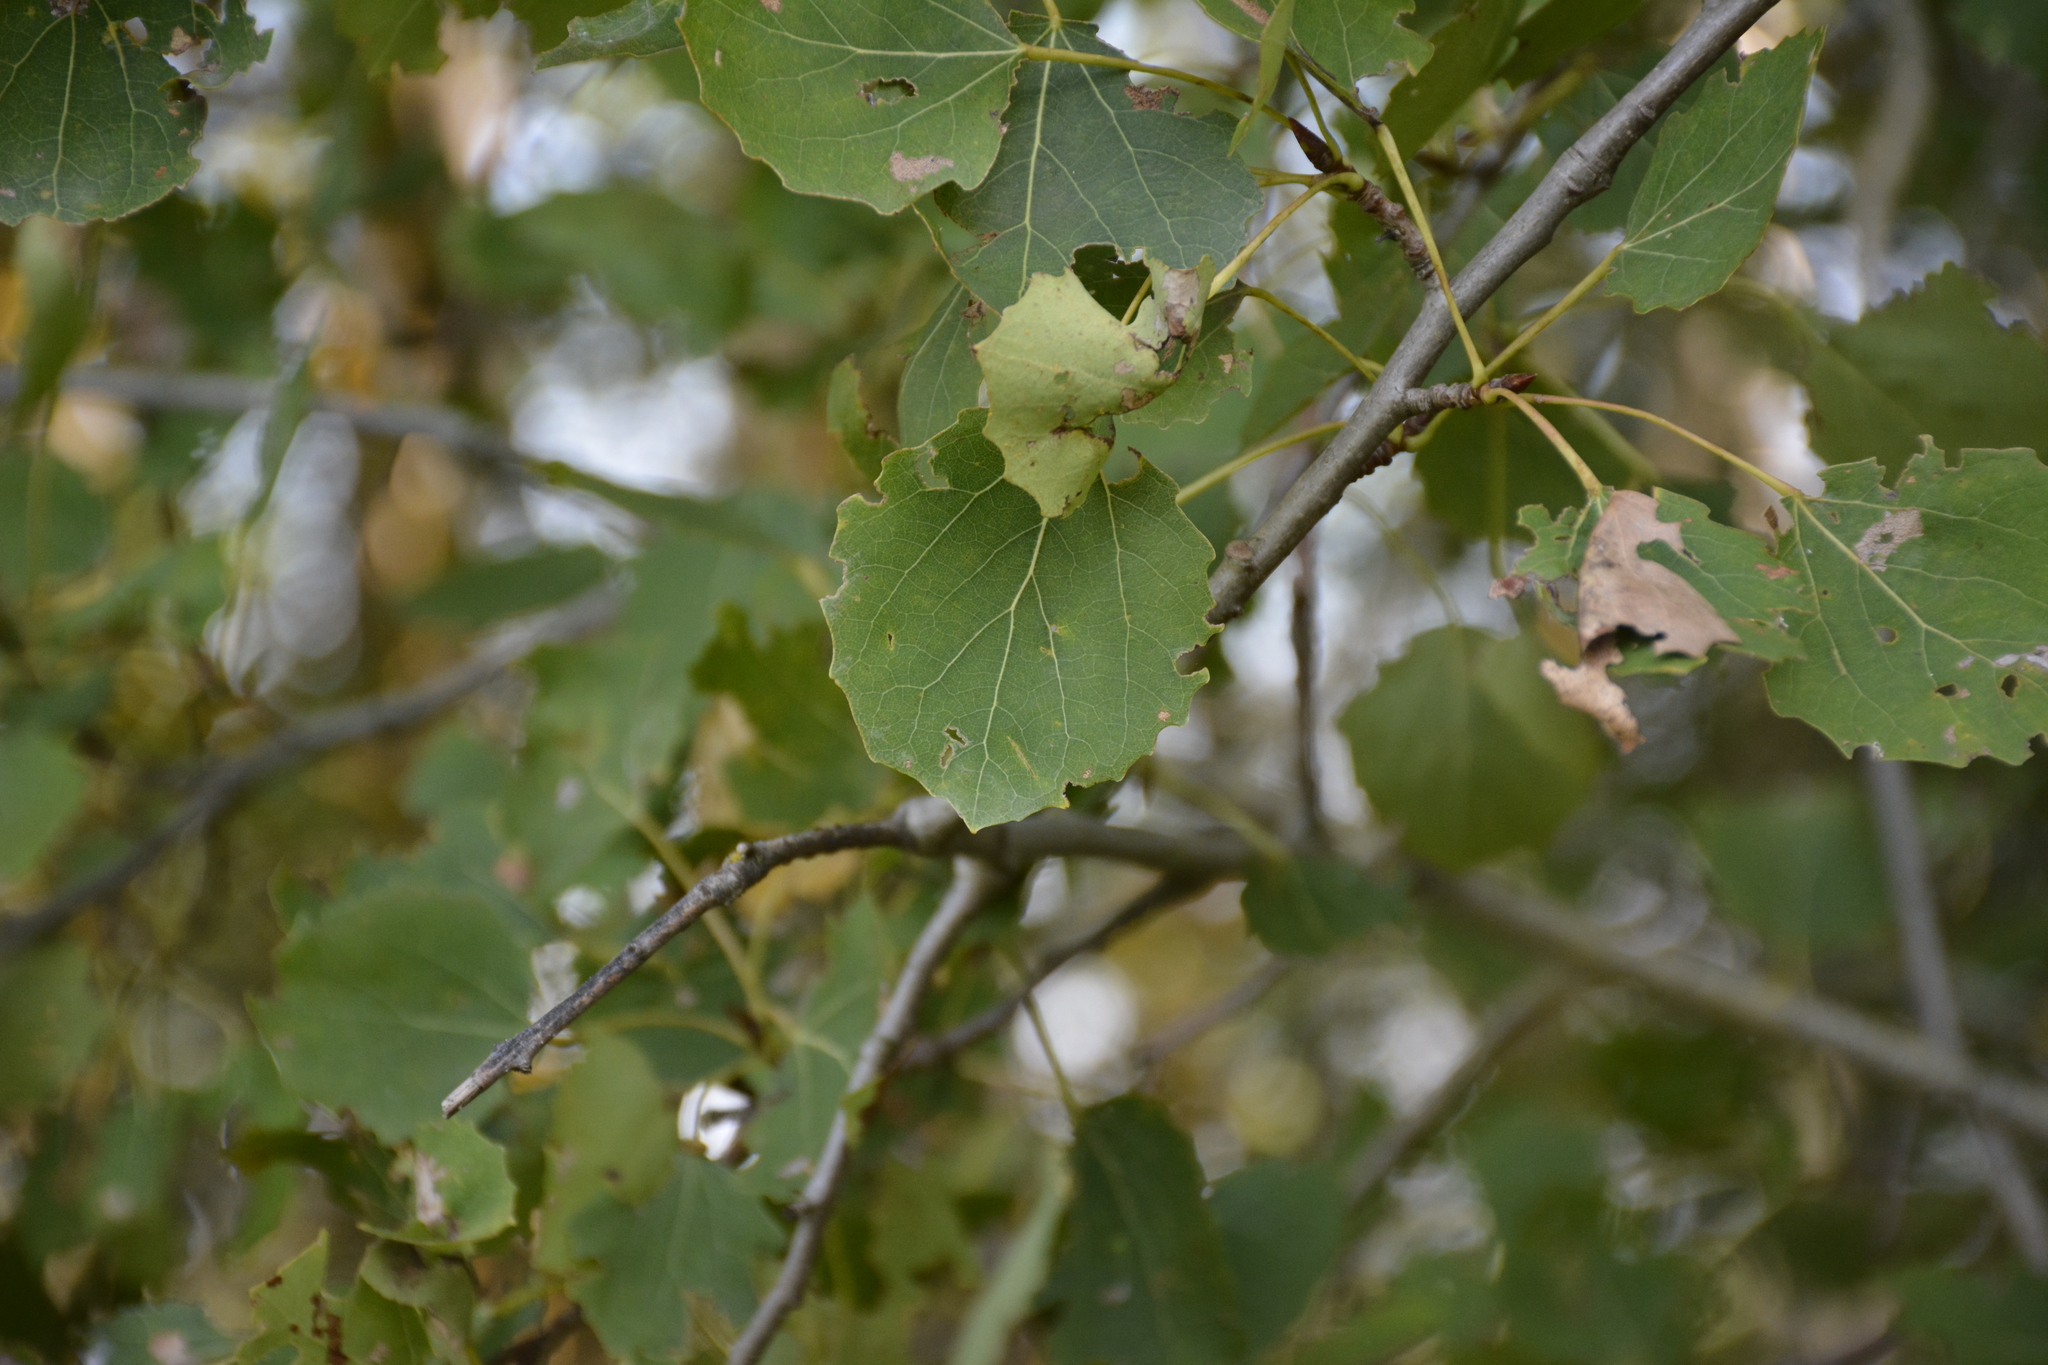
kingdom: Plantae
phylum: Tracheophyta
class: Magnoliopsida
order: Malpighiales
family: Salicaceae
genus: Populus
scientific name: Populus tremula
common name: European aspen
